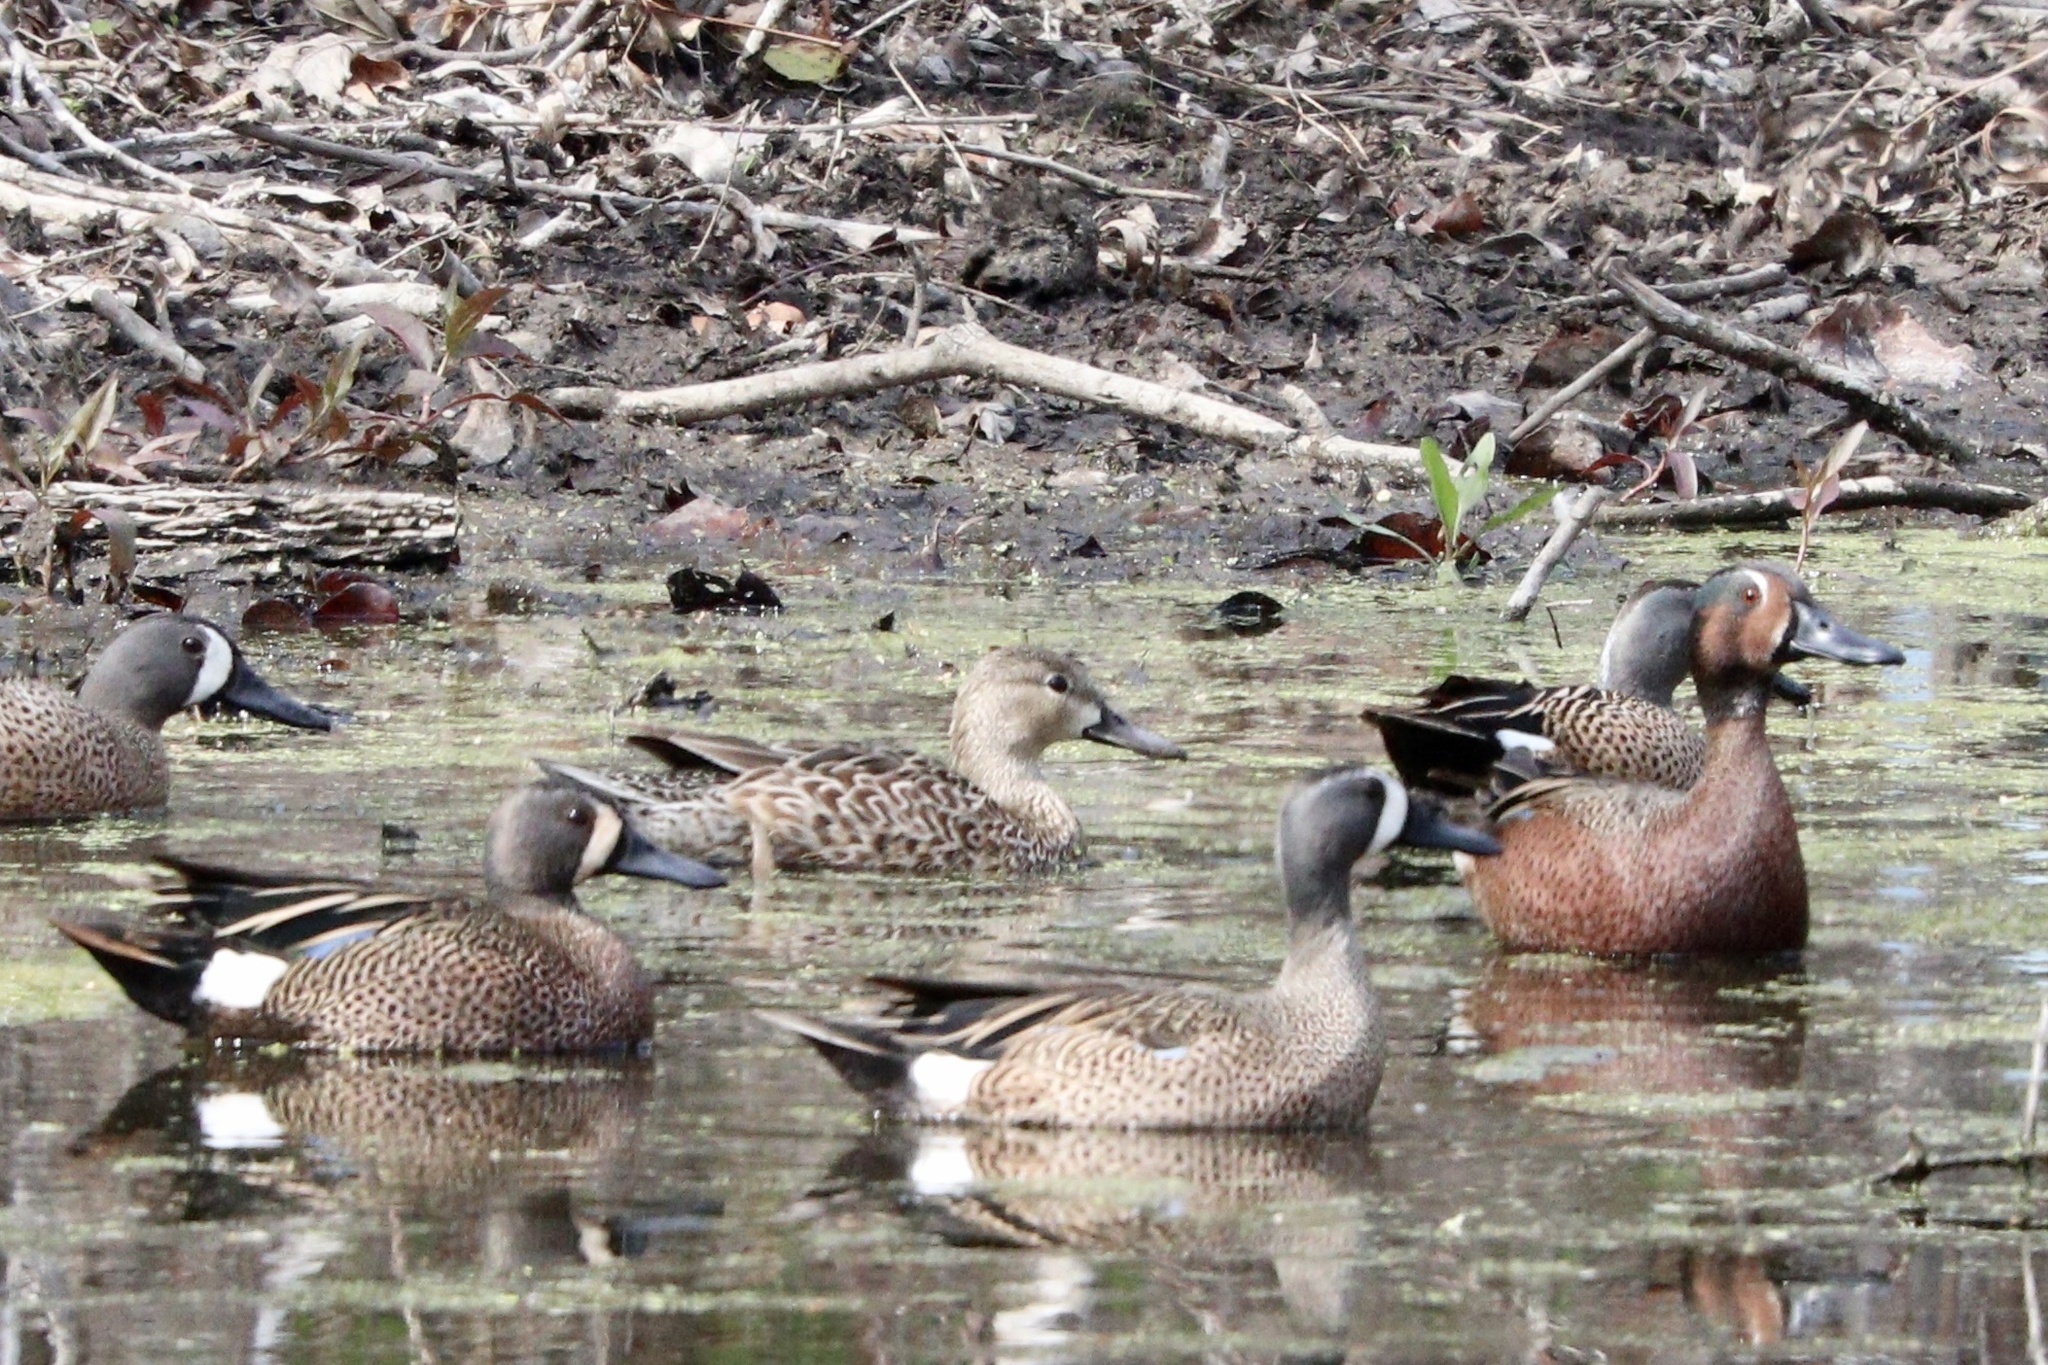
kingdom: Animalia
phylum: Chordata
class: Aves
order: Anseriformes
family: Anatidae
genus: Spatula
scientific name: Spatula discors
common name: Blue-winged teal
